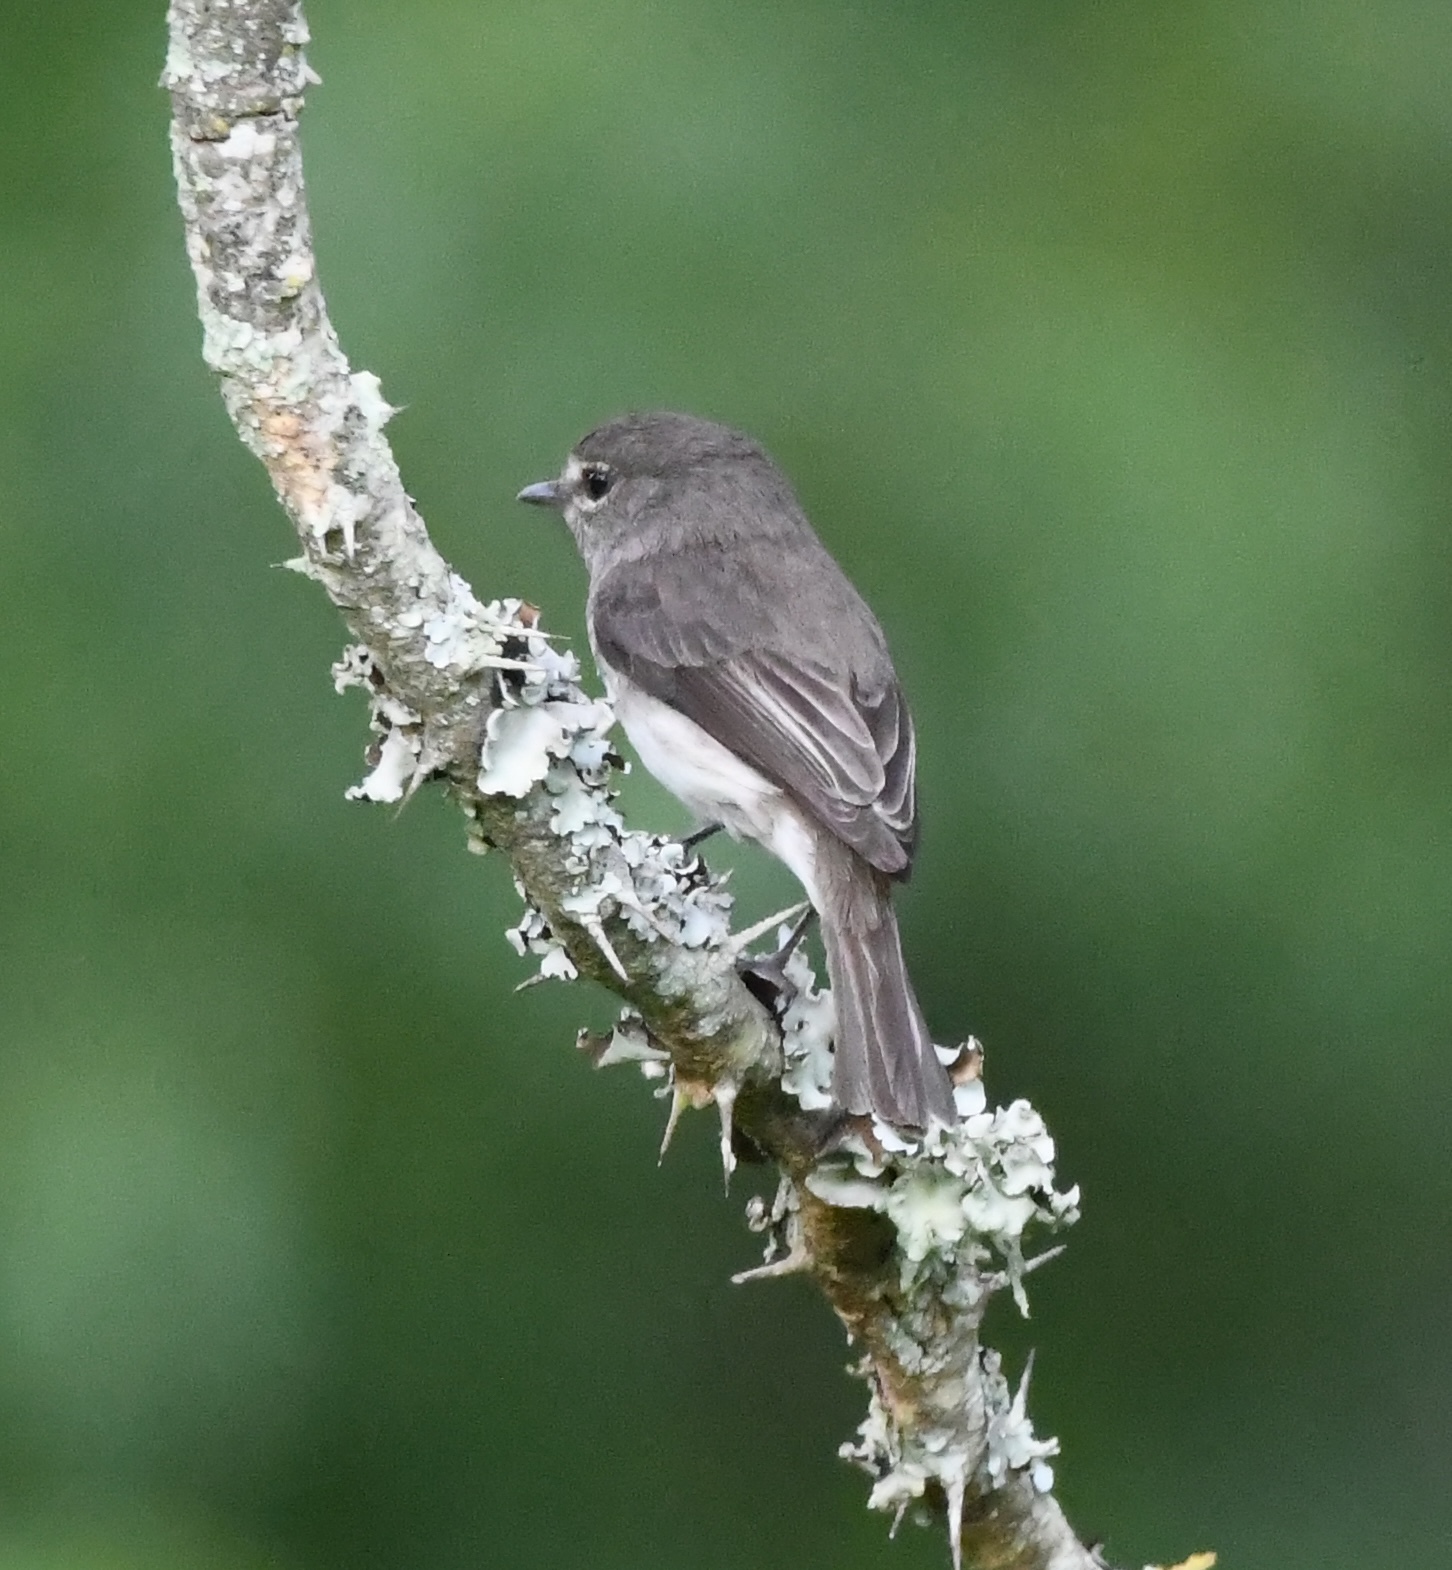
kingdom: Animalia
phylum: Chordata
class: Aves
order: Passeriformes
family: Muscicapidae
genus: Muscicapa
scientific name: Muscicapa adusta
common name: African dusky flycatcher
